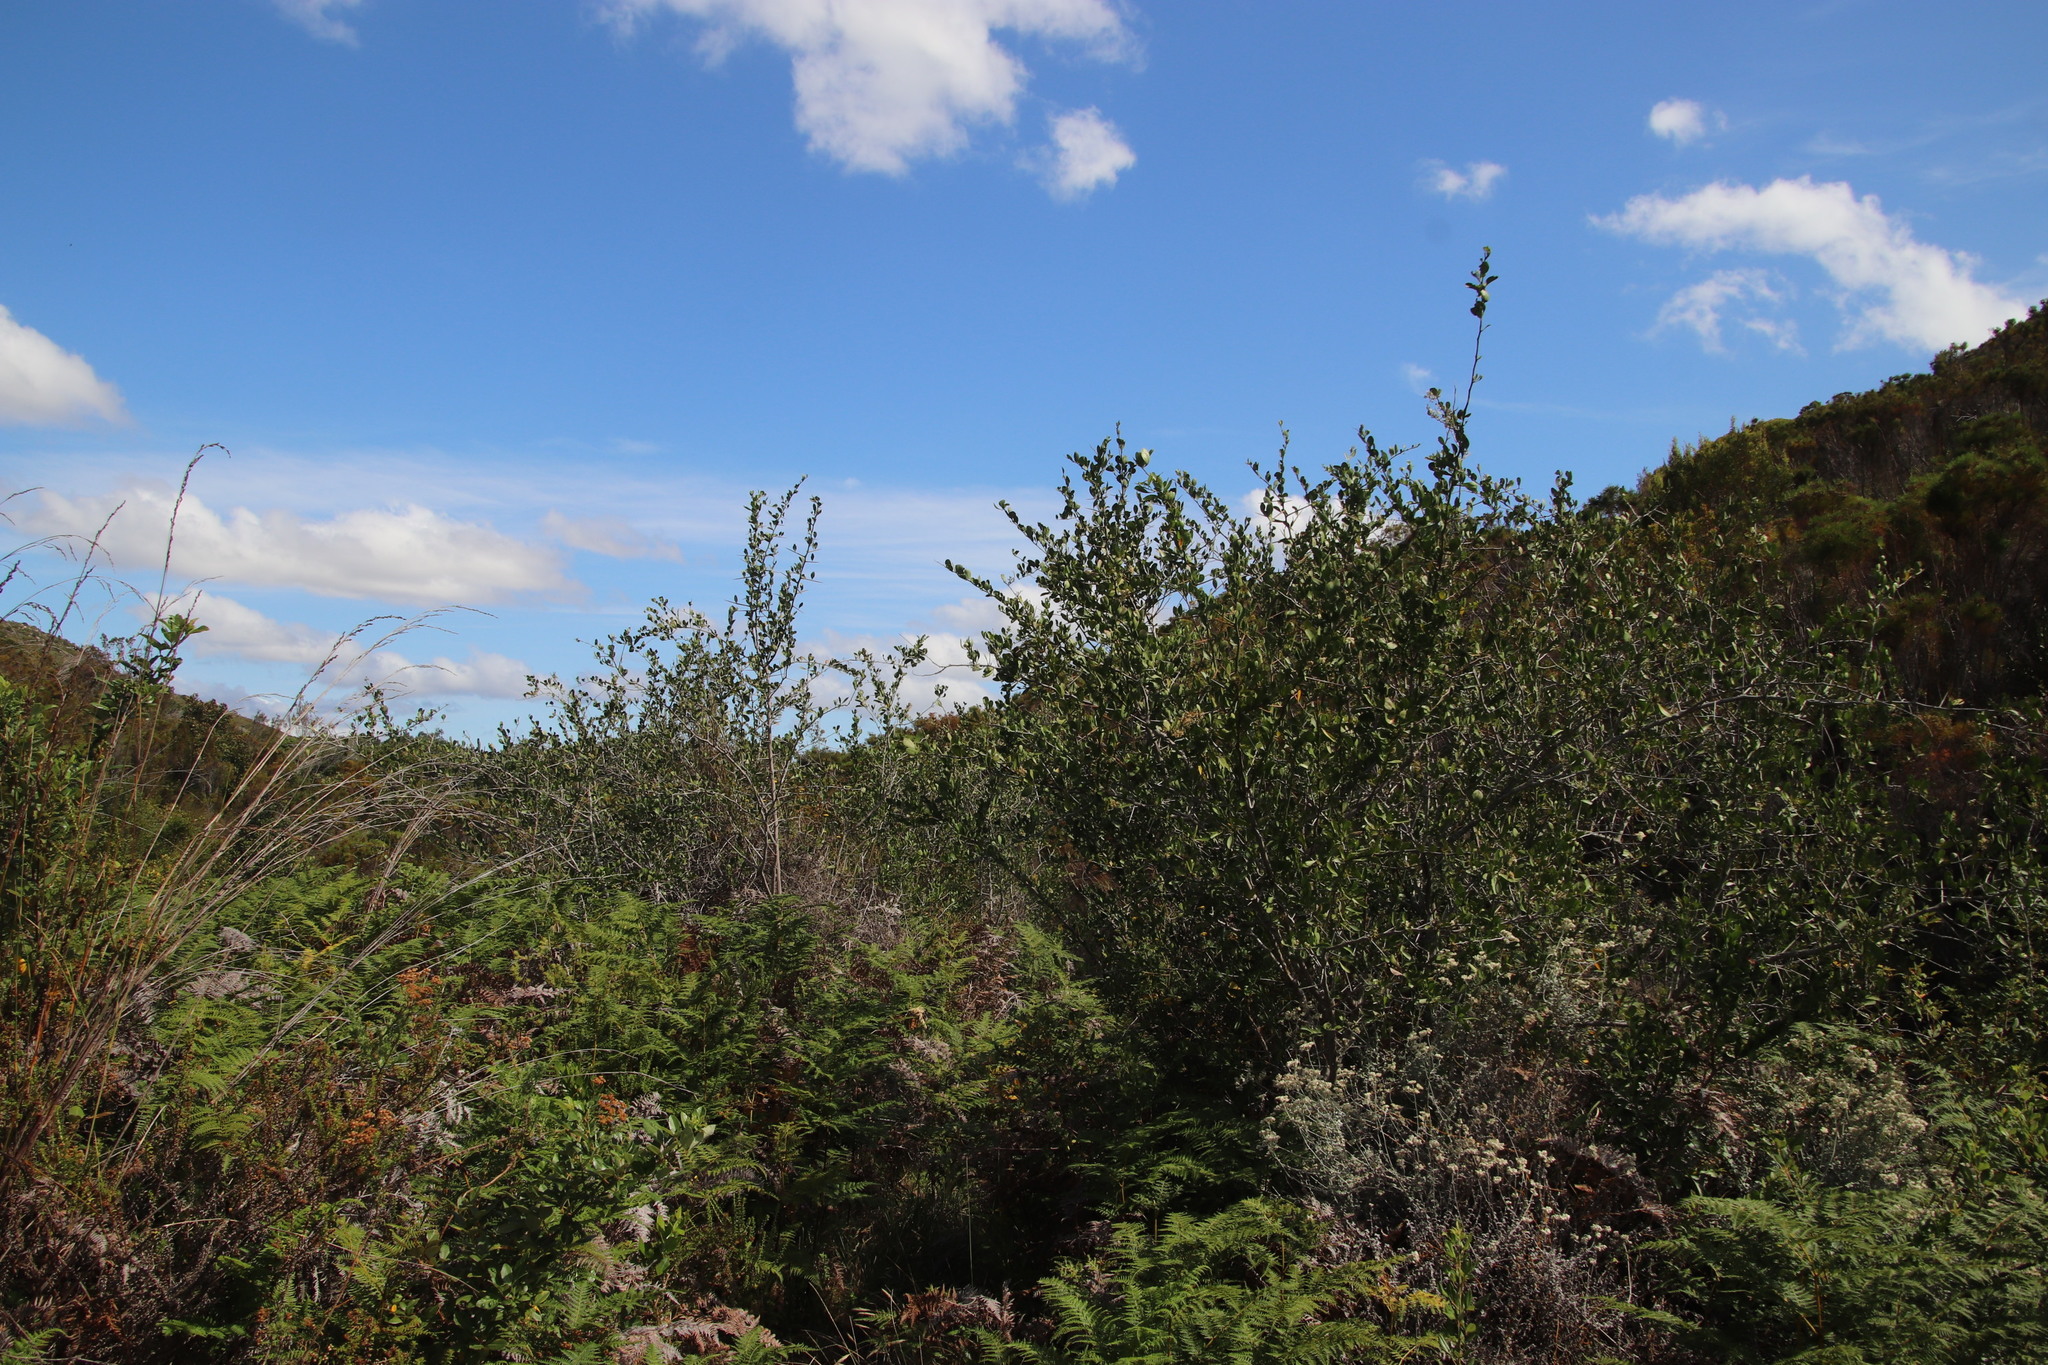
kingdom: Plantae
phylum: Tracheophyta
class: Magnoliopsida
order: Celastrales
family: Celastraceae
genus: Gymnosporia
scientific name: Gymnosporia buxifolia
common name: Common spike-thorn
